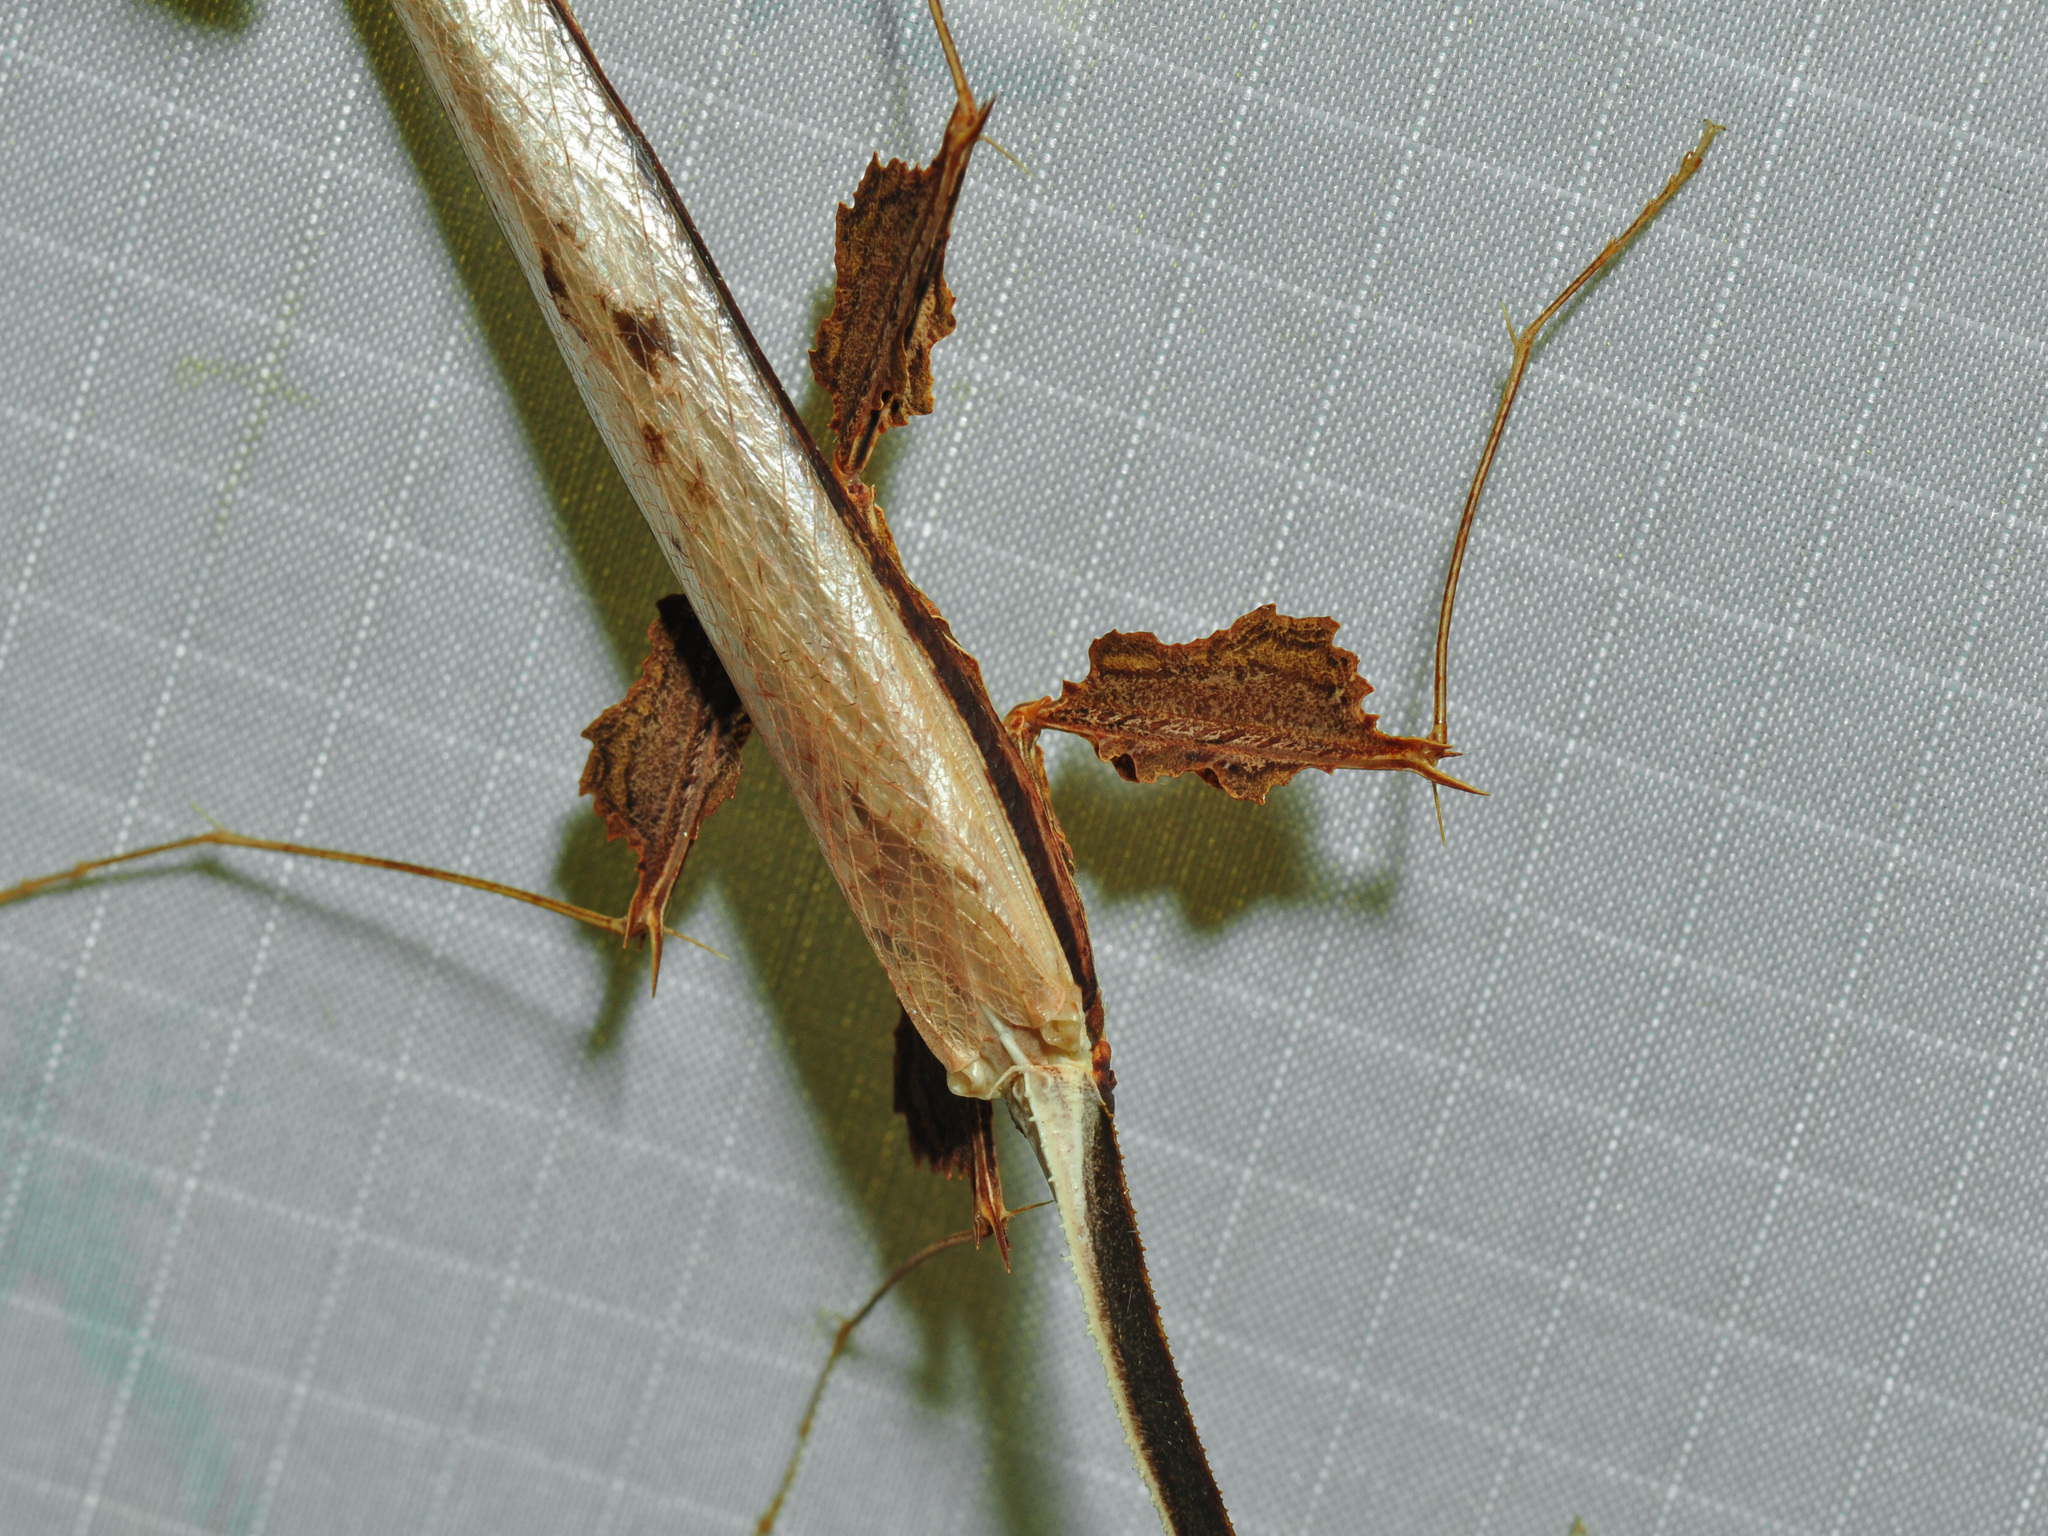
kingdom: Animalia
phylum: Arthropoda
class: Insecta
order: Mantodea
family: Toxoderidae
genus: Toxodera
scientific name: Toxodera fimbriata
